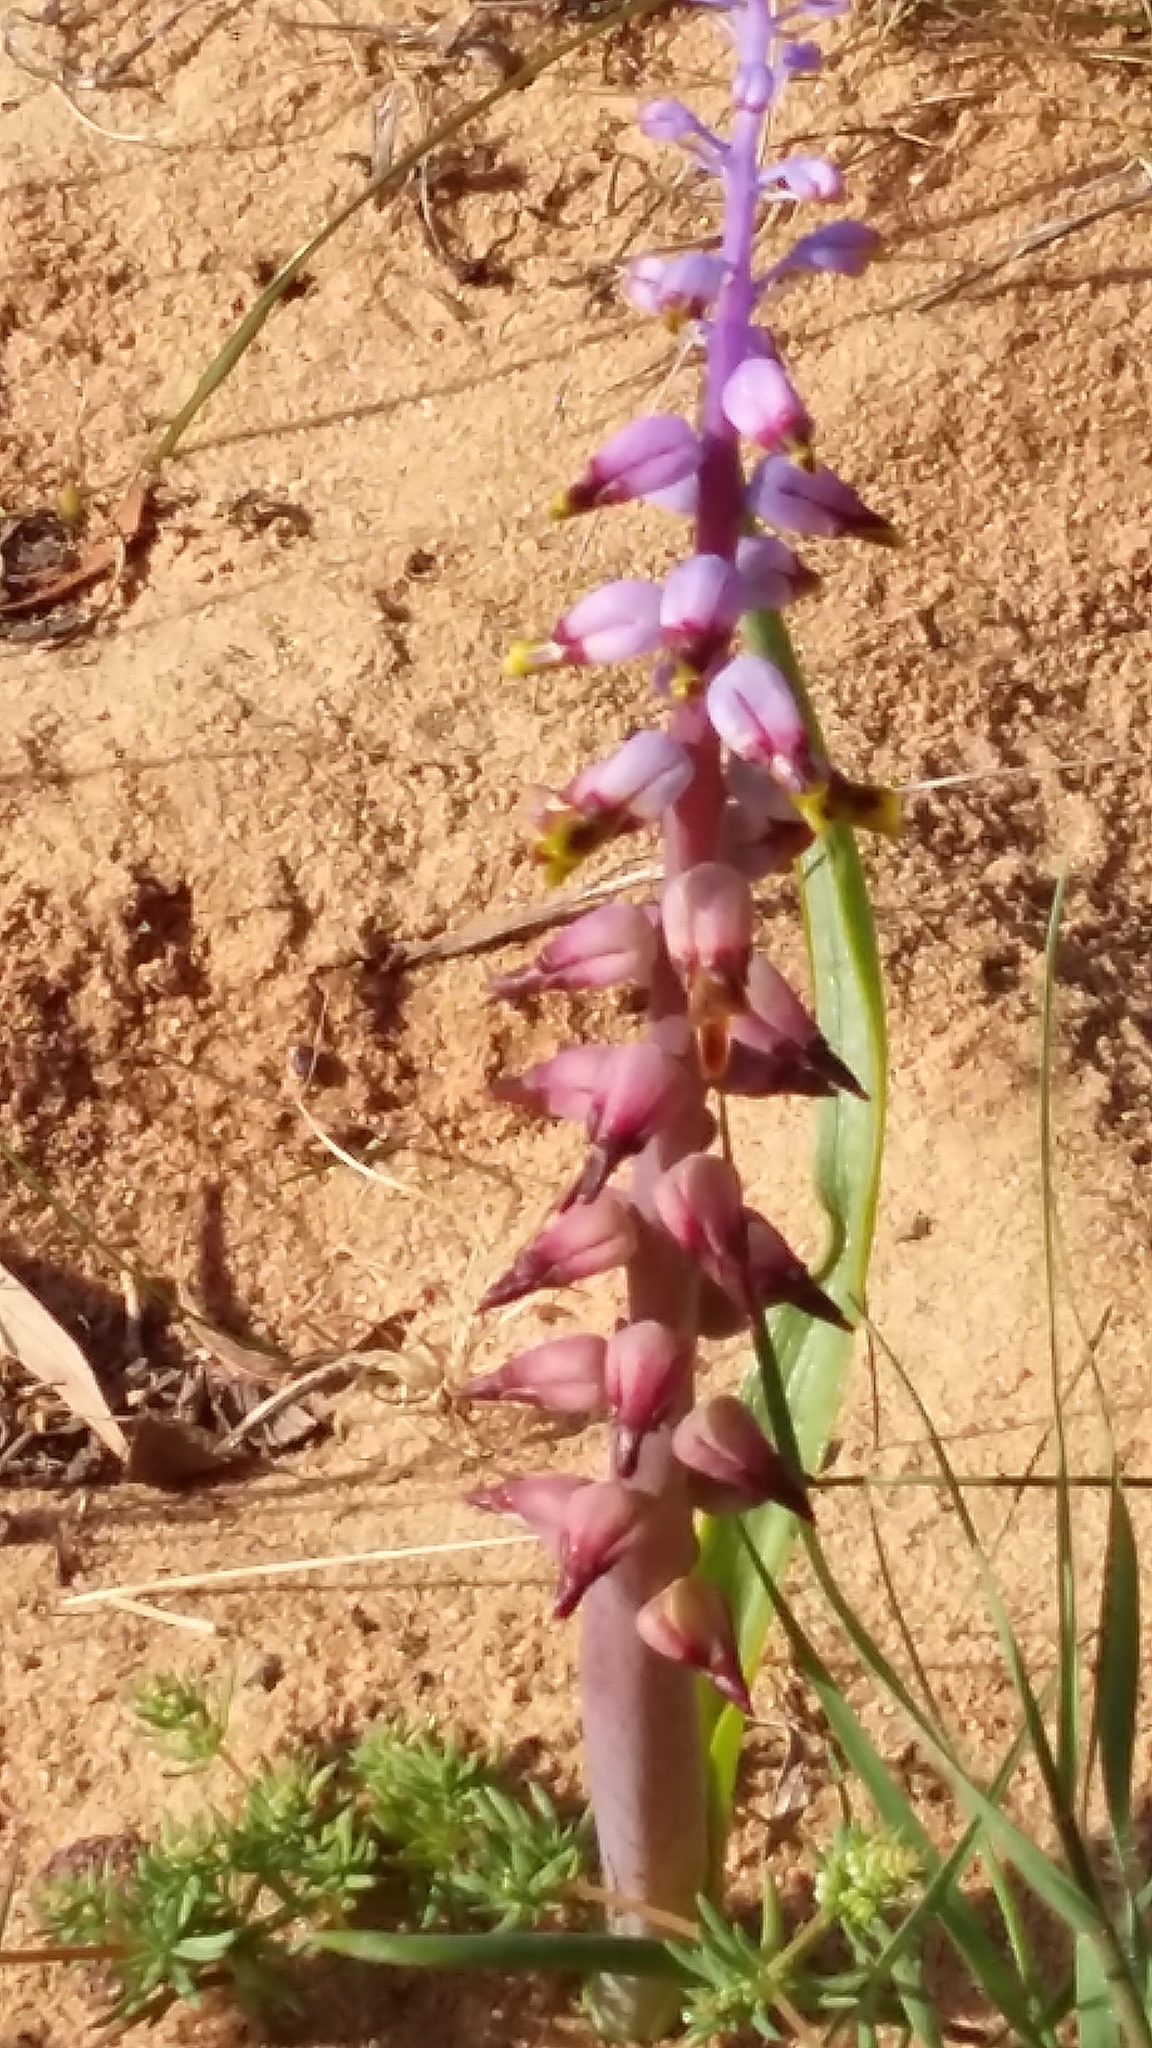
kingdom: Plantae
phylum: Tracheophyta
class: Liliopsida
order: Asparagales
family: Asparagaceae
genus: Lachenalia
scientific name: Lachenalia mutabilis
